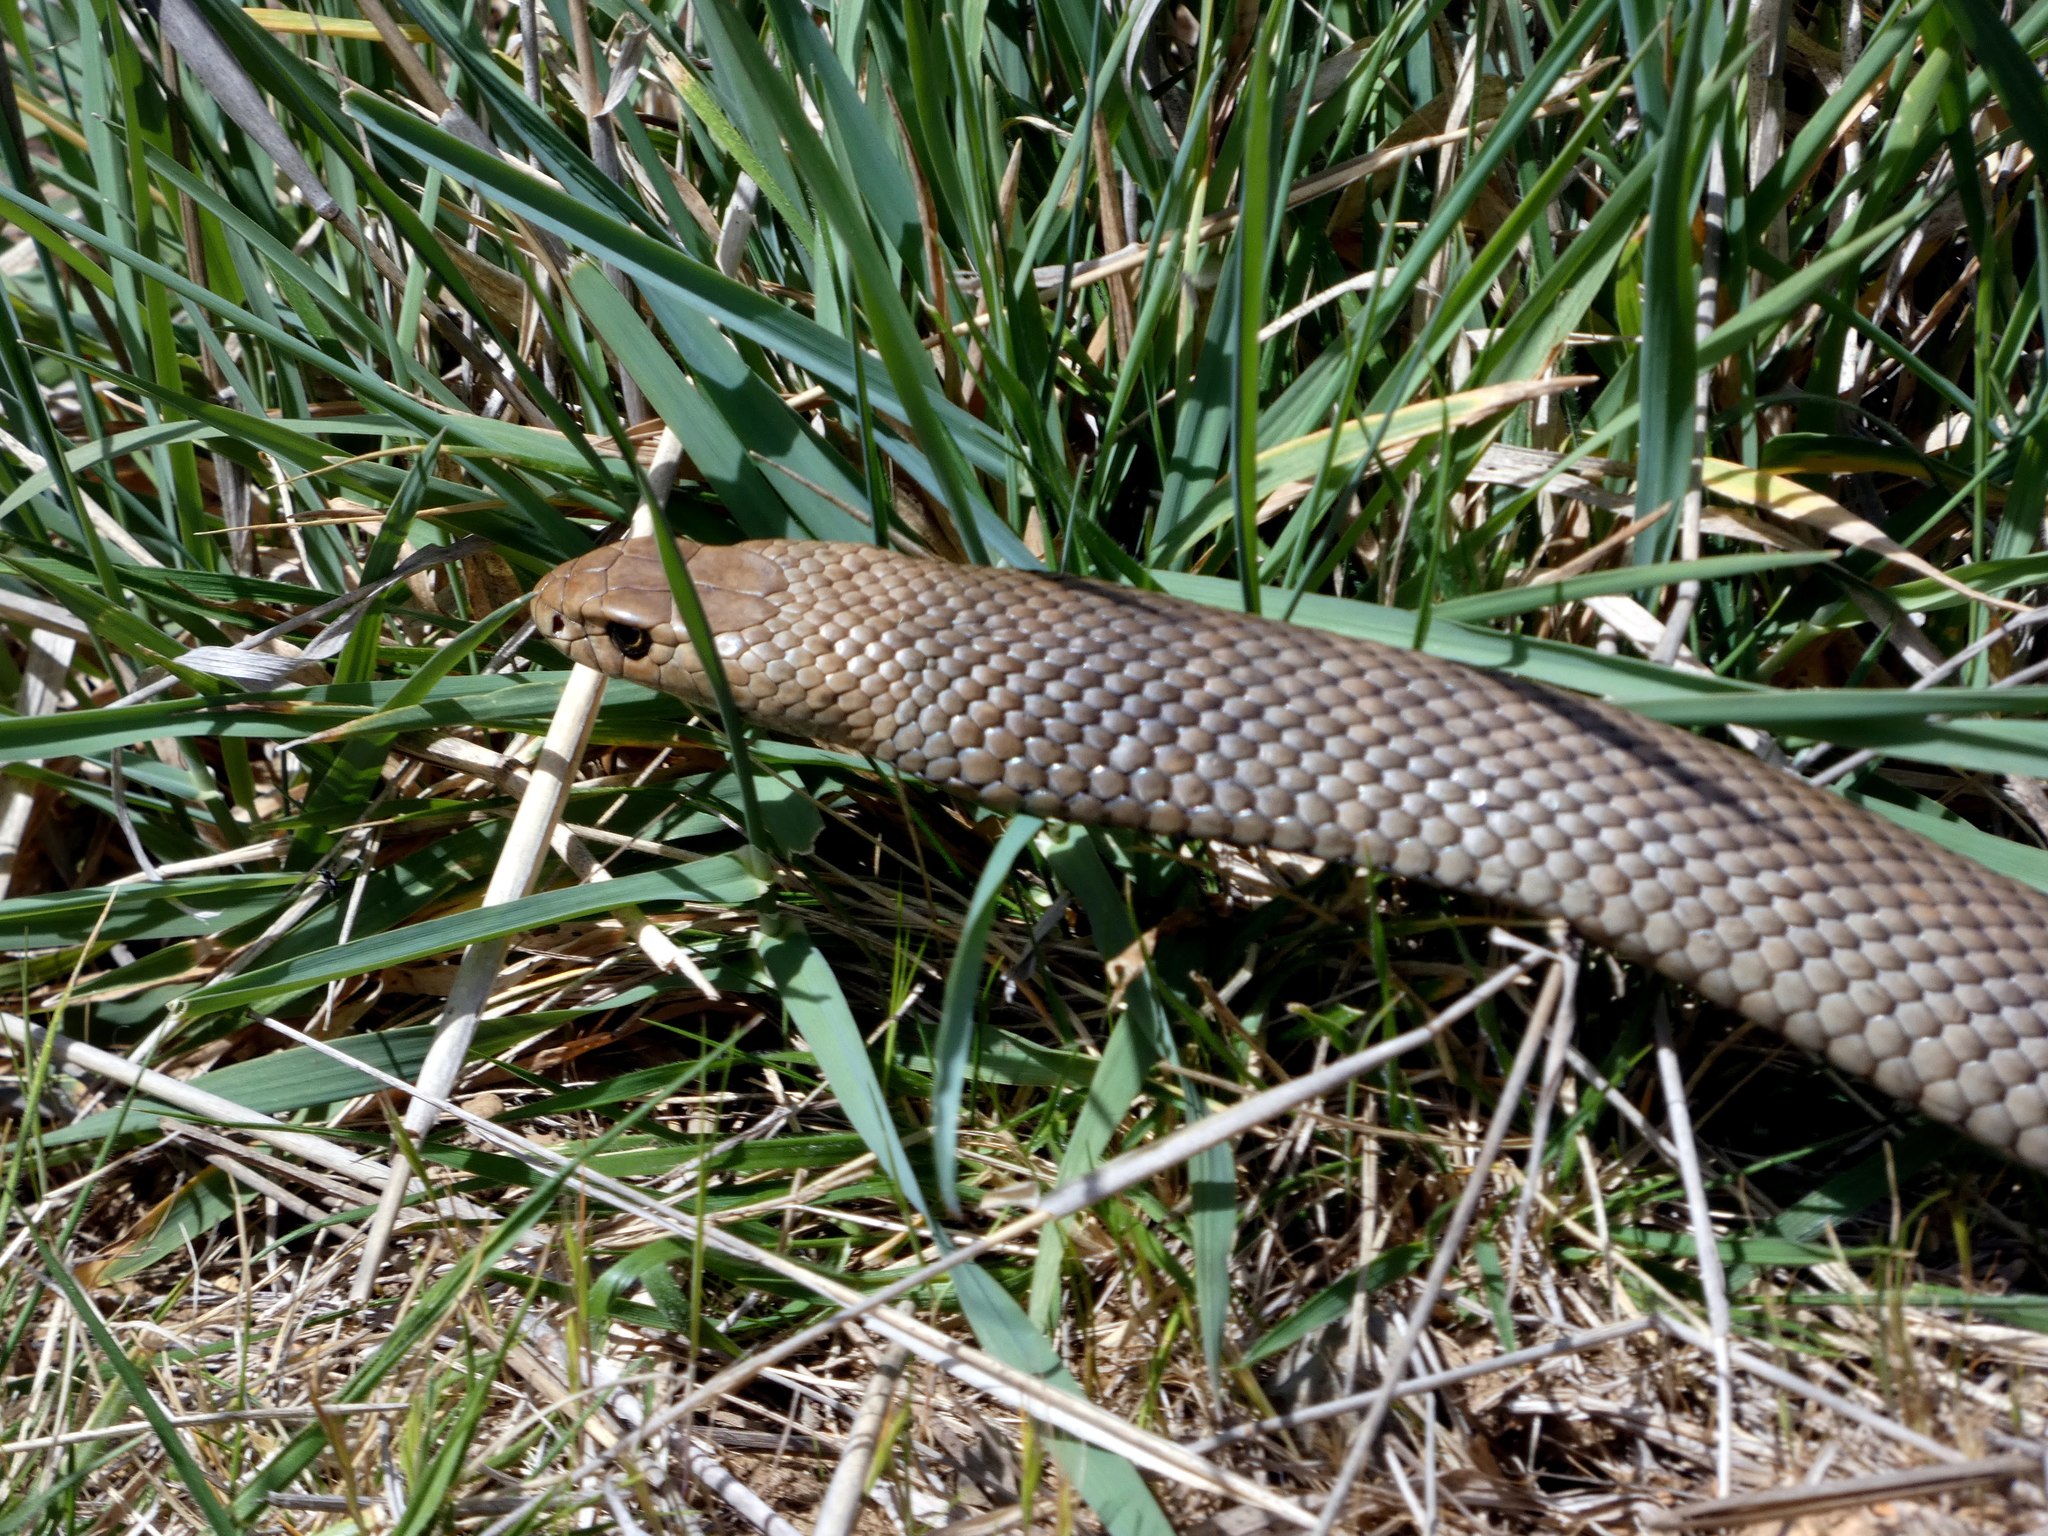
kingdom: Animalia
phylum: Chordata
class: Squamata
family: Elapidae
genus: Pseudonaja
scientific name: Pseudonaja textilis
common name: Eastern brown snake
